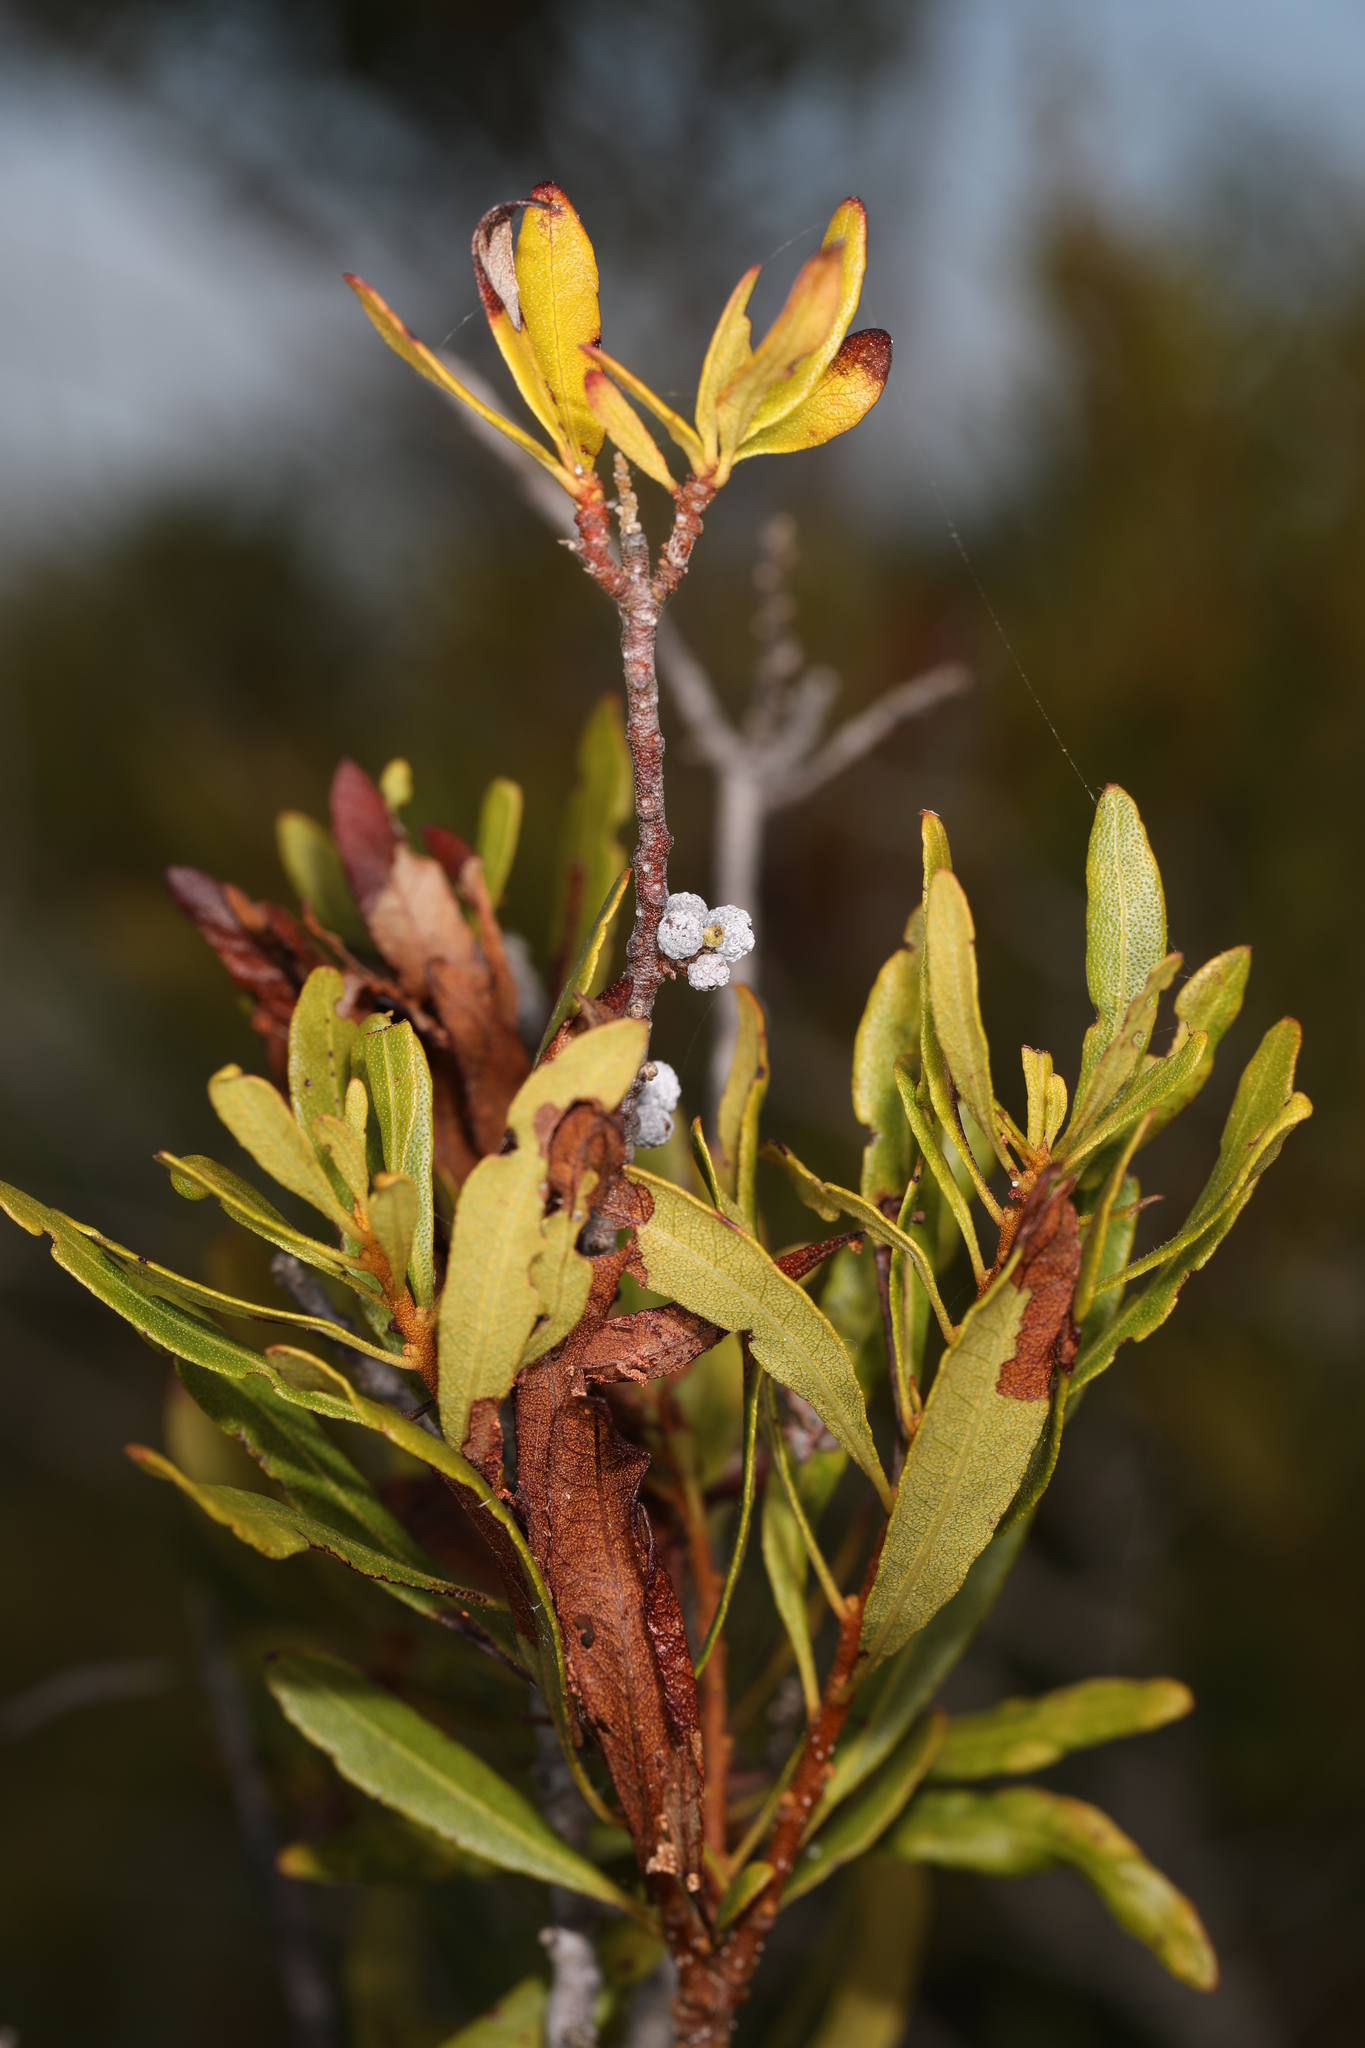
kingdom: Plantae
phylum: Tracheophyta
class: Magnoliopsida
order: Fagales
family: Myricaceae
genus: Morella
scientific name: Morella cerifera
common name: Wax myrtle
